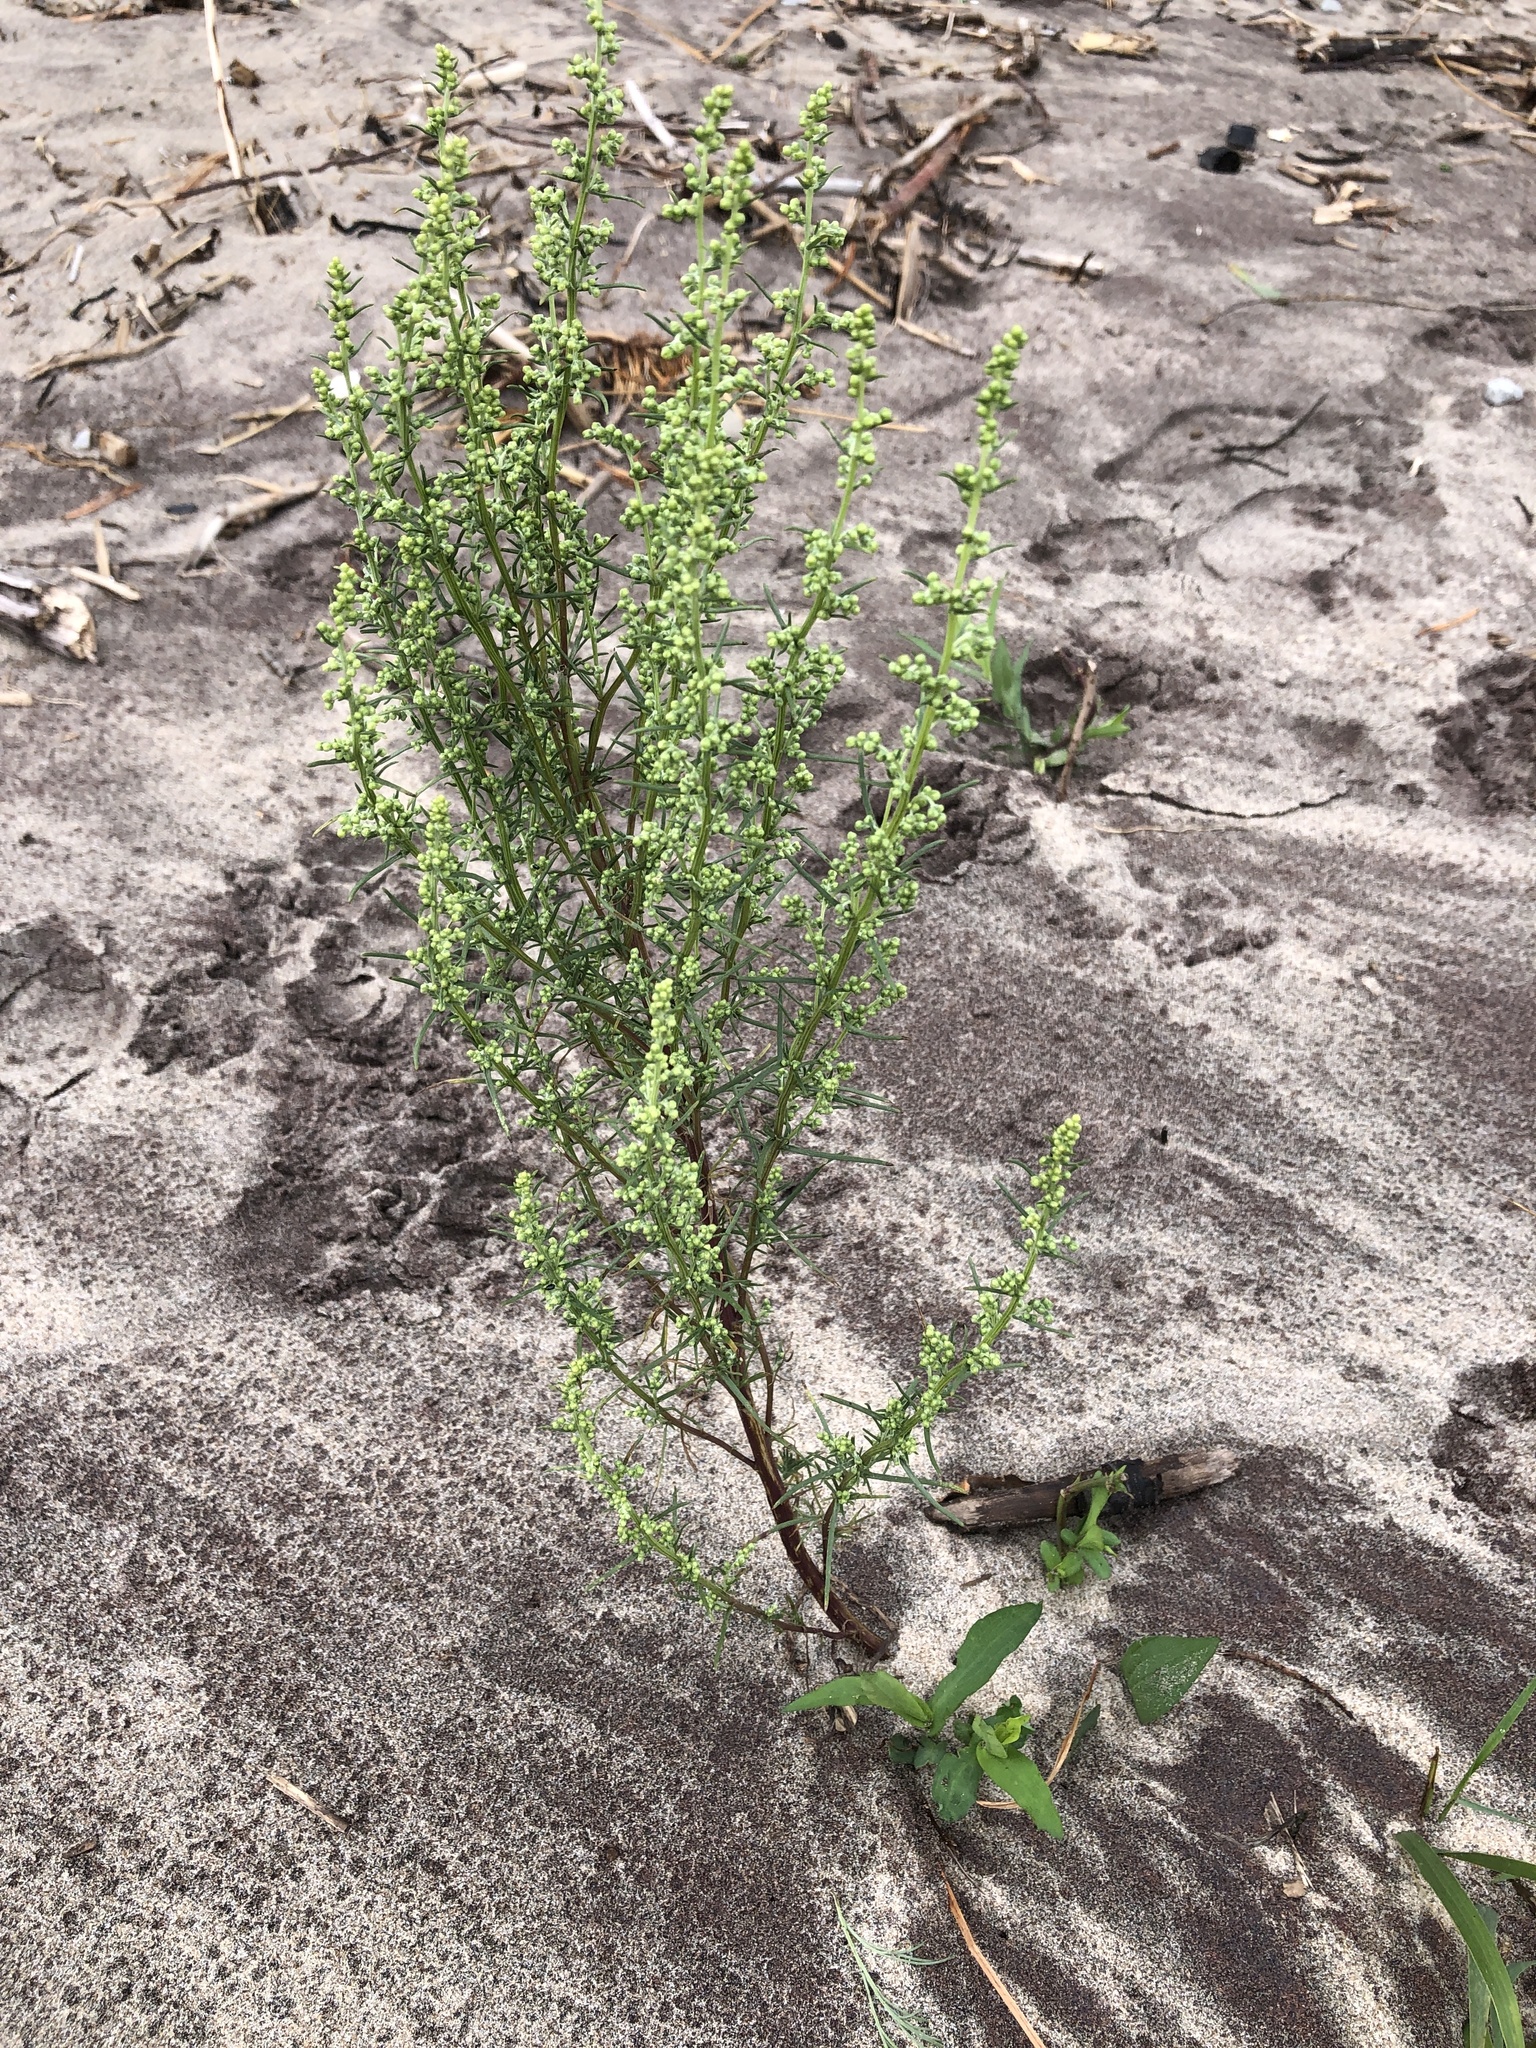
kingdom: Plantae
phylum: Tracheophyta
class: Magnoliopsida
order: Asterales
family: Asteraceae
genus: Artemisia
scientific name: Artemisia campestris
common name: Field wormwood
